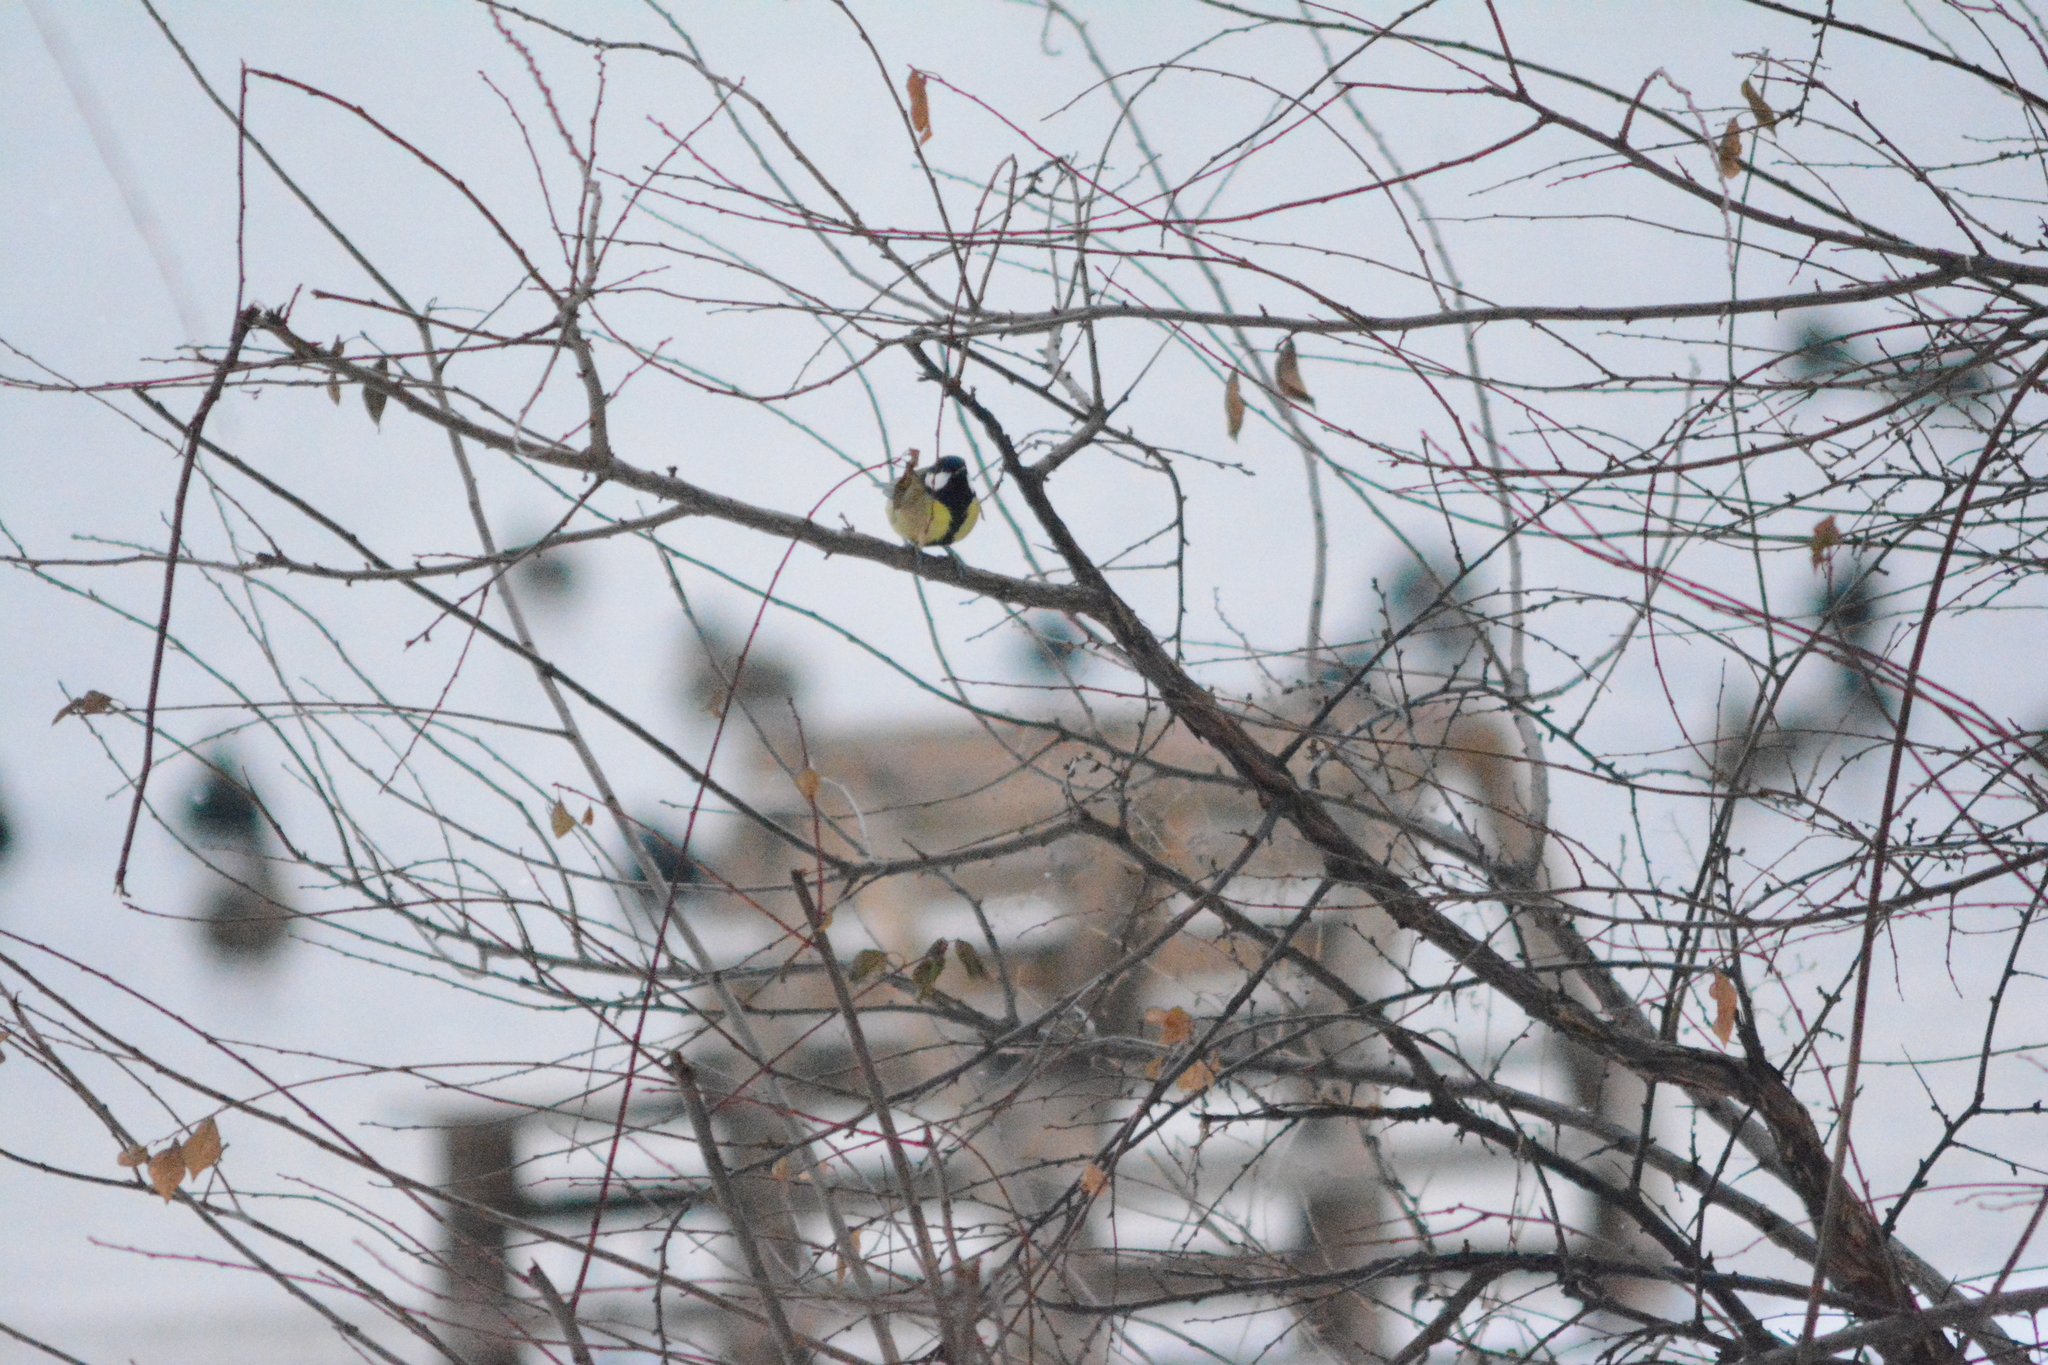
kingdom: Animalia
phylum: Chordata
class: Aves
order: Passeriformes
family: Paridae
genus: Parus
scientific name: Parus major
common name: Great tit
